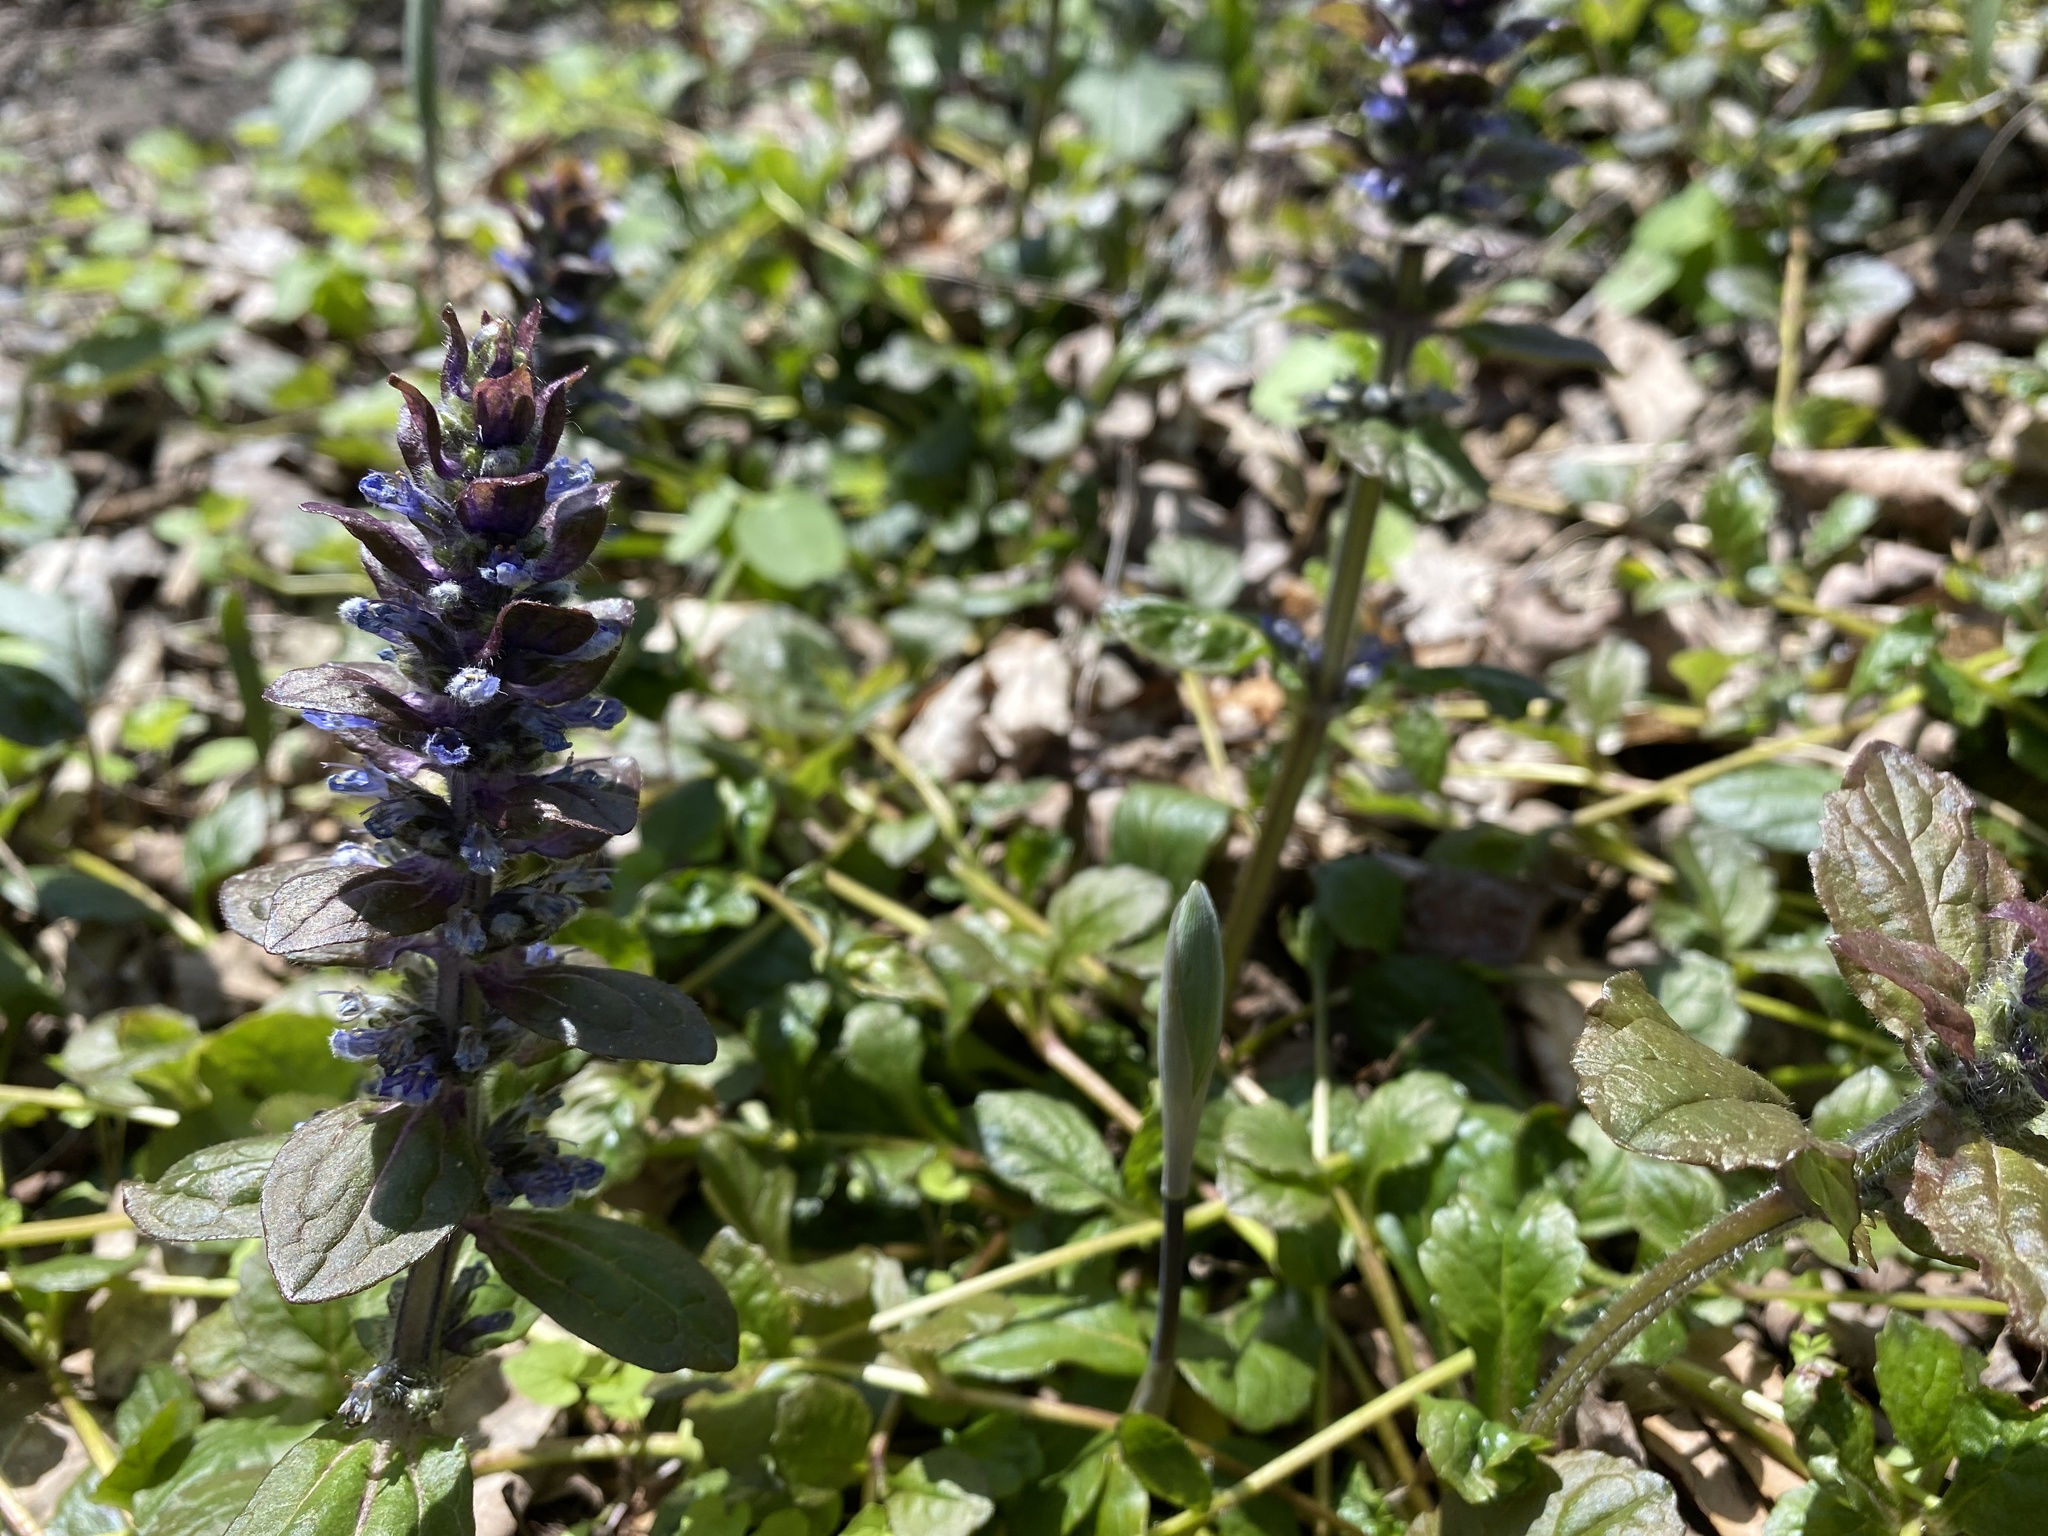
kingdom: Plantae
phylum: Tracheophyta
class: Magnoliopsida
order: Lamiales
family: Lamiaceae
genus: Ajuga
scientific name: Ajuga reptans
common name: Bugle
